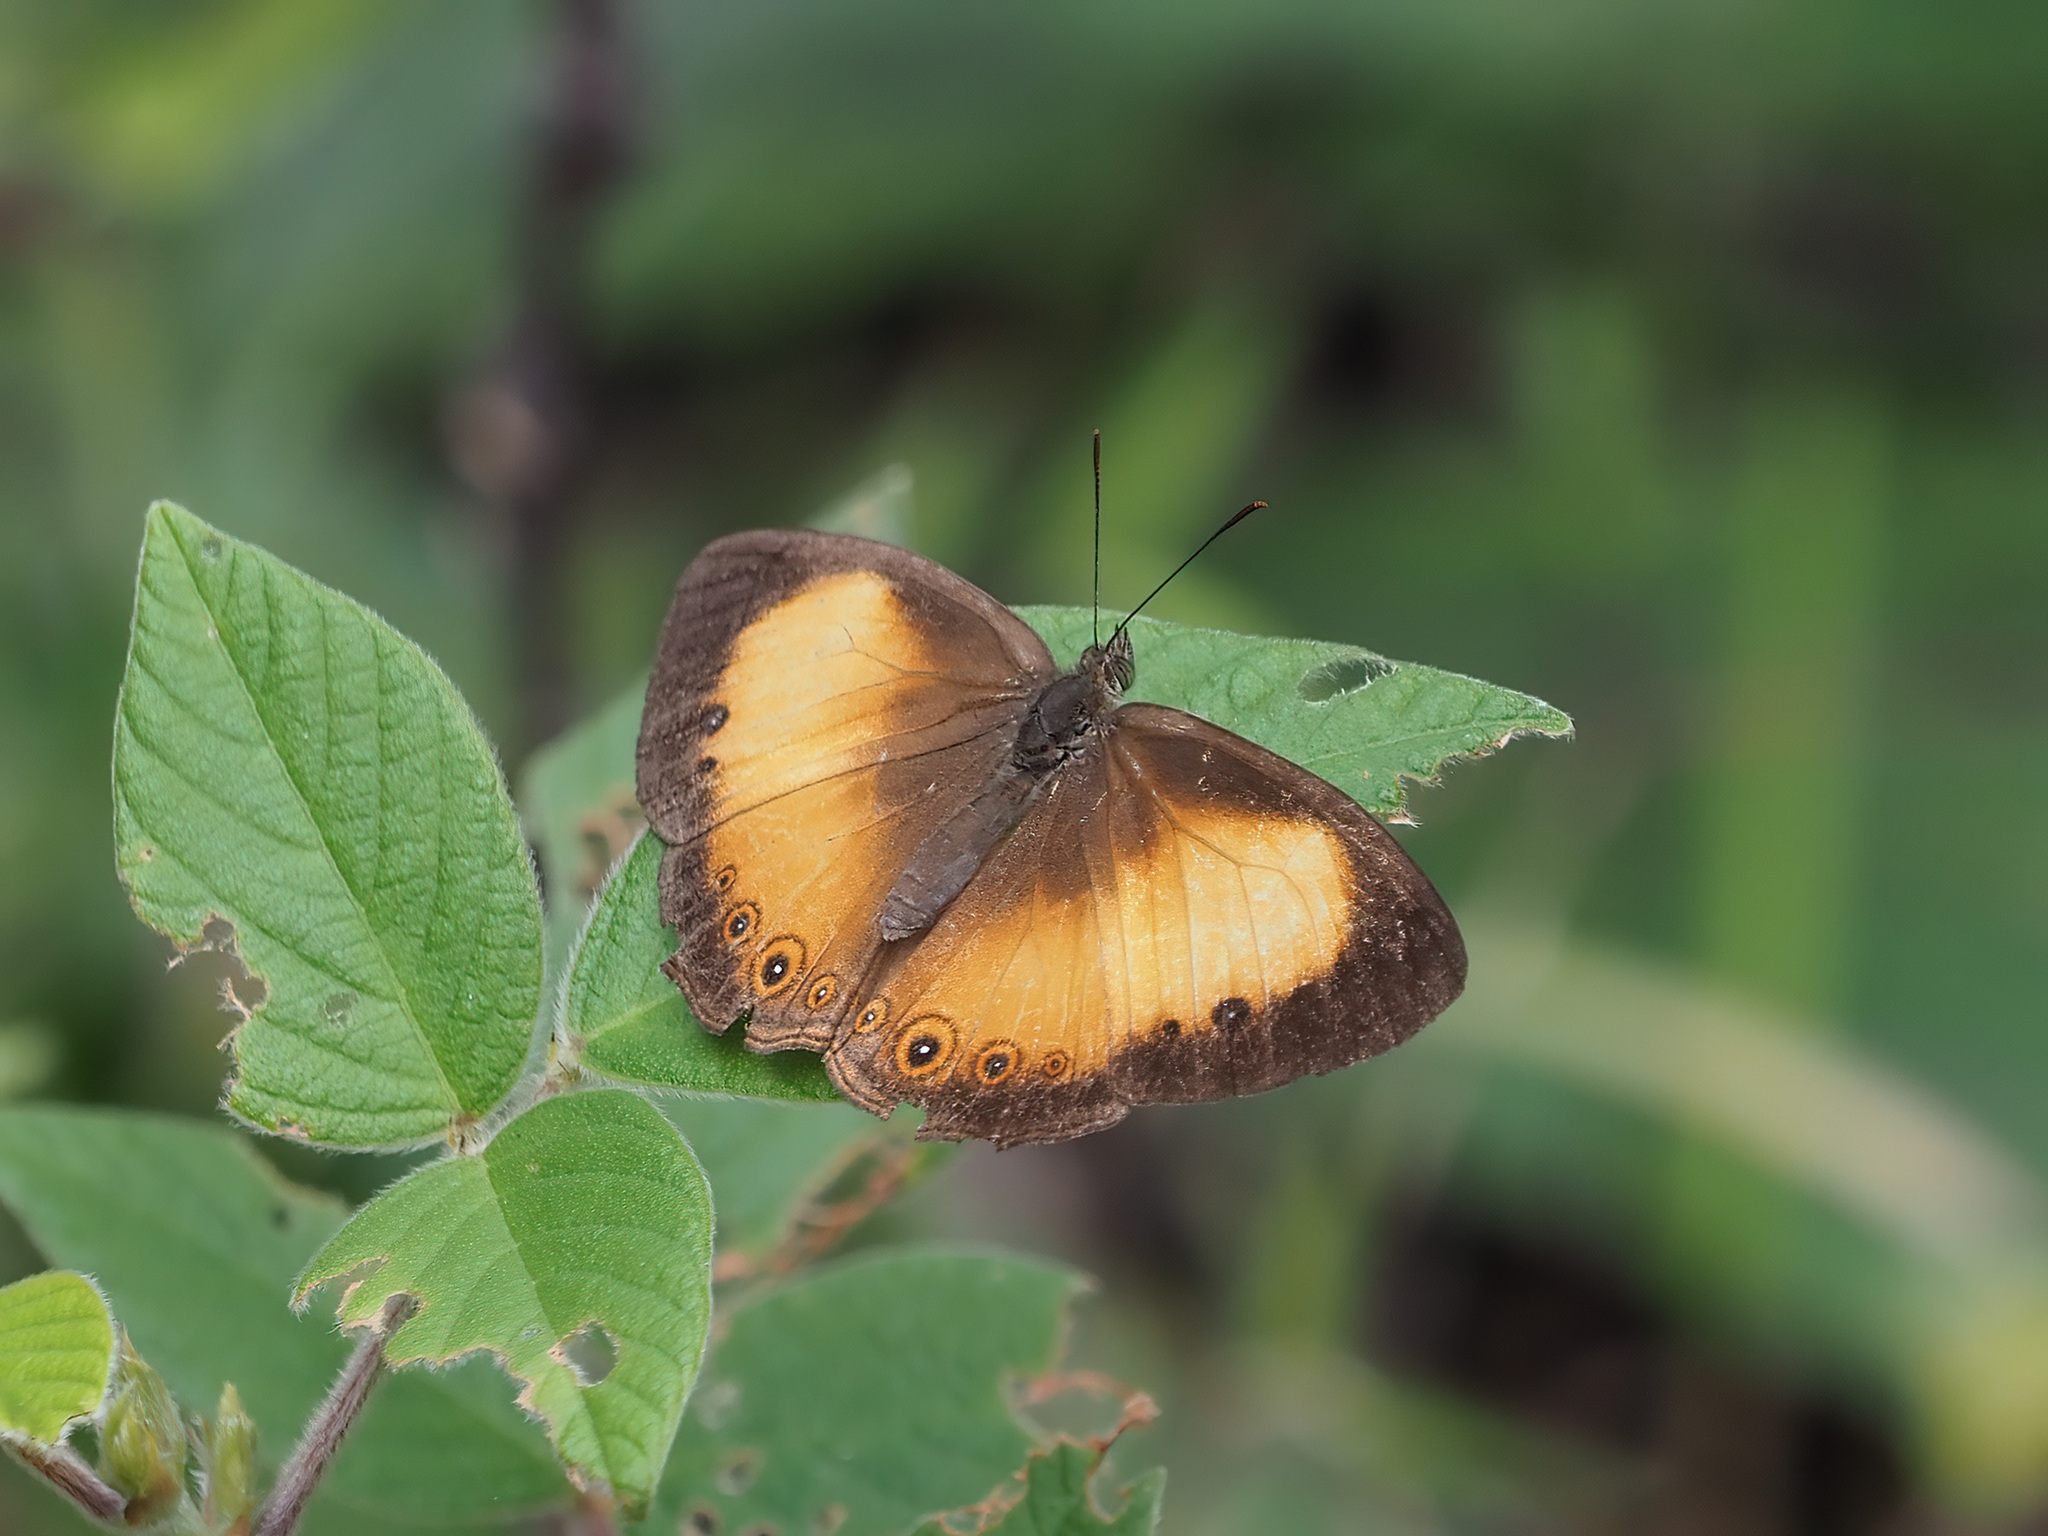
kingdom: Animalia
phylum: Arthropoda
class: Insecta
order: Lepidoptera
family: Nymphalidae
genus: Mycalesis
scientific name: Mycalesis marginata
